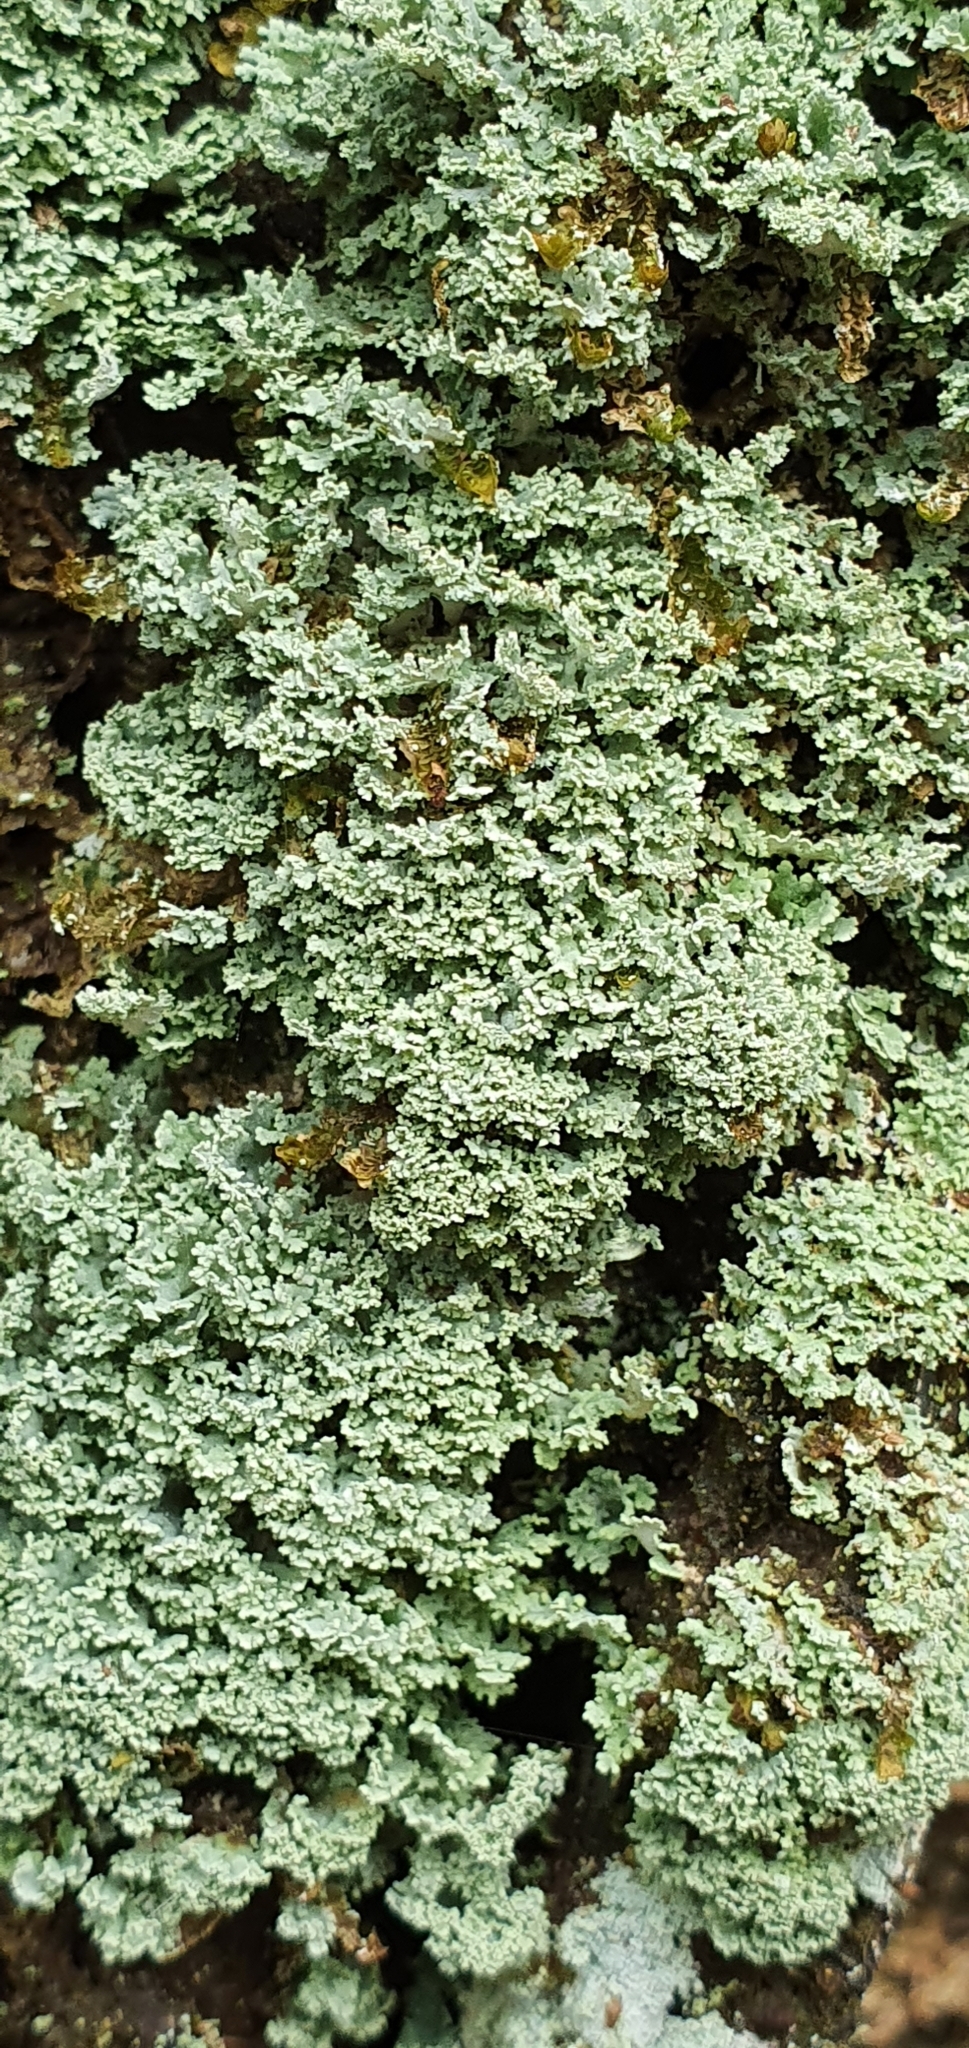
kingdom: Fungi
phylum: Ascomycota
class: Lecanoromycetes
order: Lecanorales
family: Cladoniaceae
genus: Cladonia
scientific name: Cladonia
